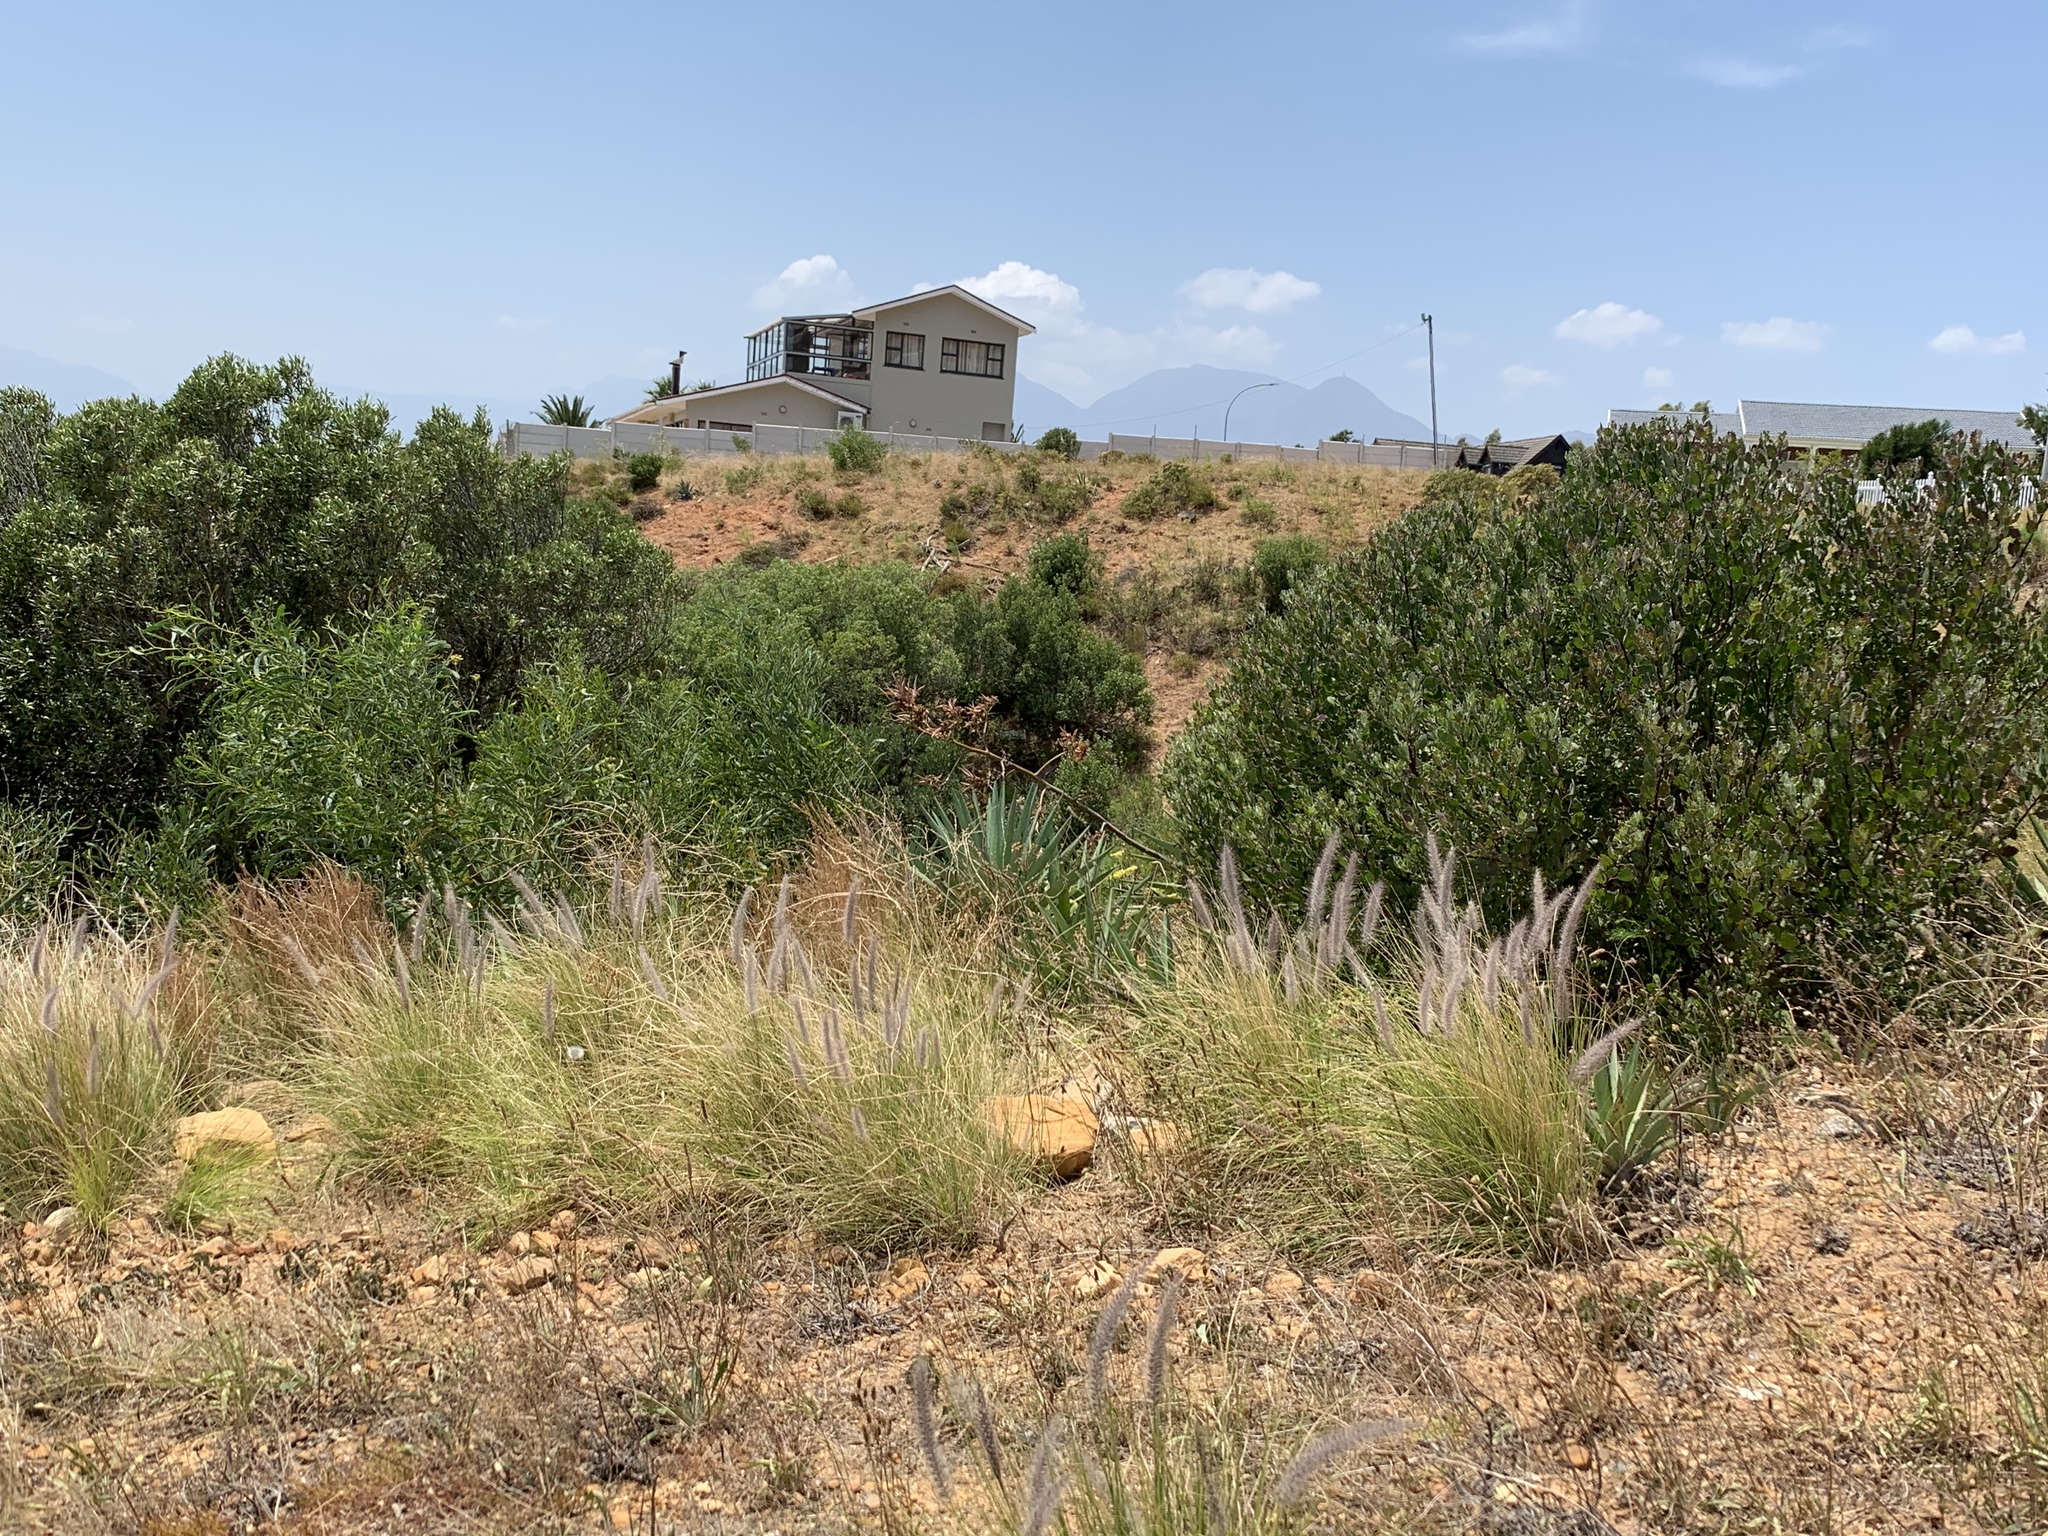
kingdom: Plantae
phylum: Tracheophyta
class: Liliopsida
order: Poales
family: Poaceae
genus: Cenchrus
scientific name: Cenchrus setaceus
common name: Crimson fountaingrass
